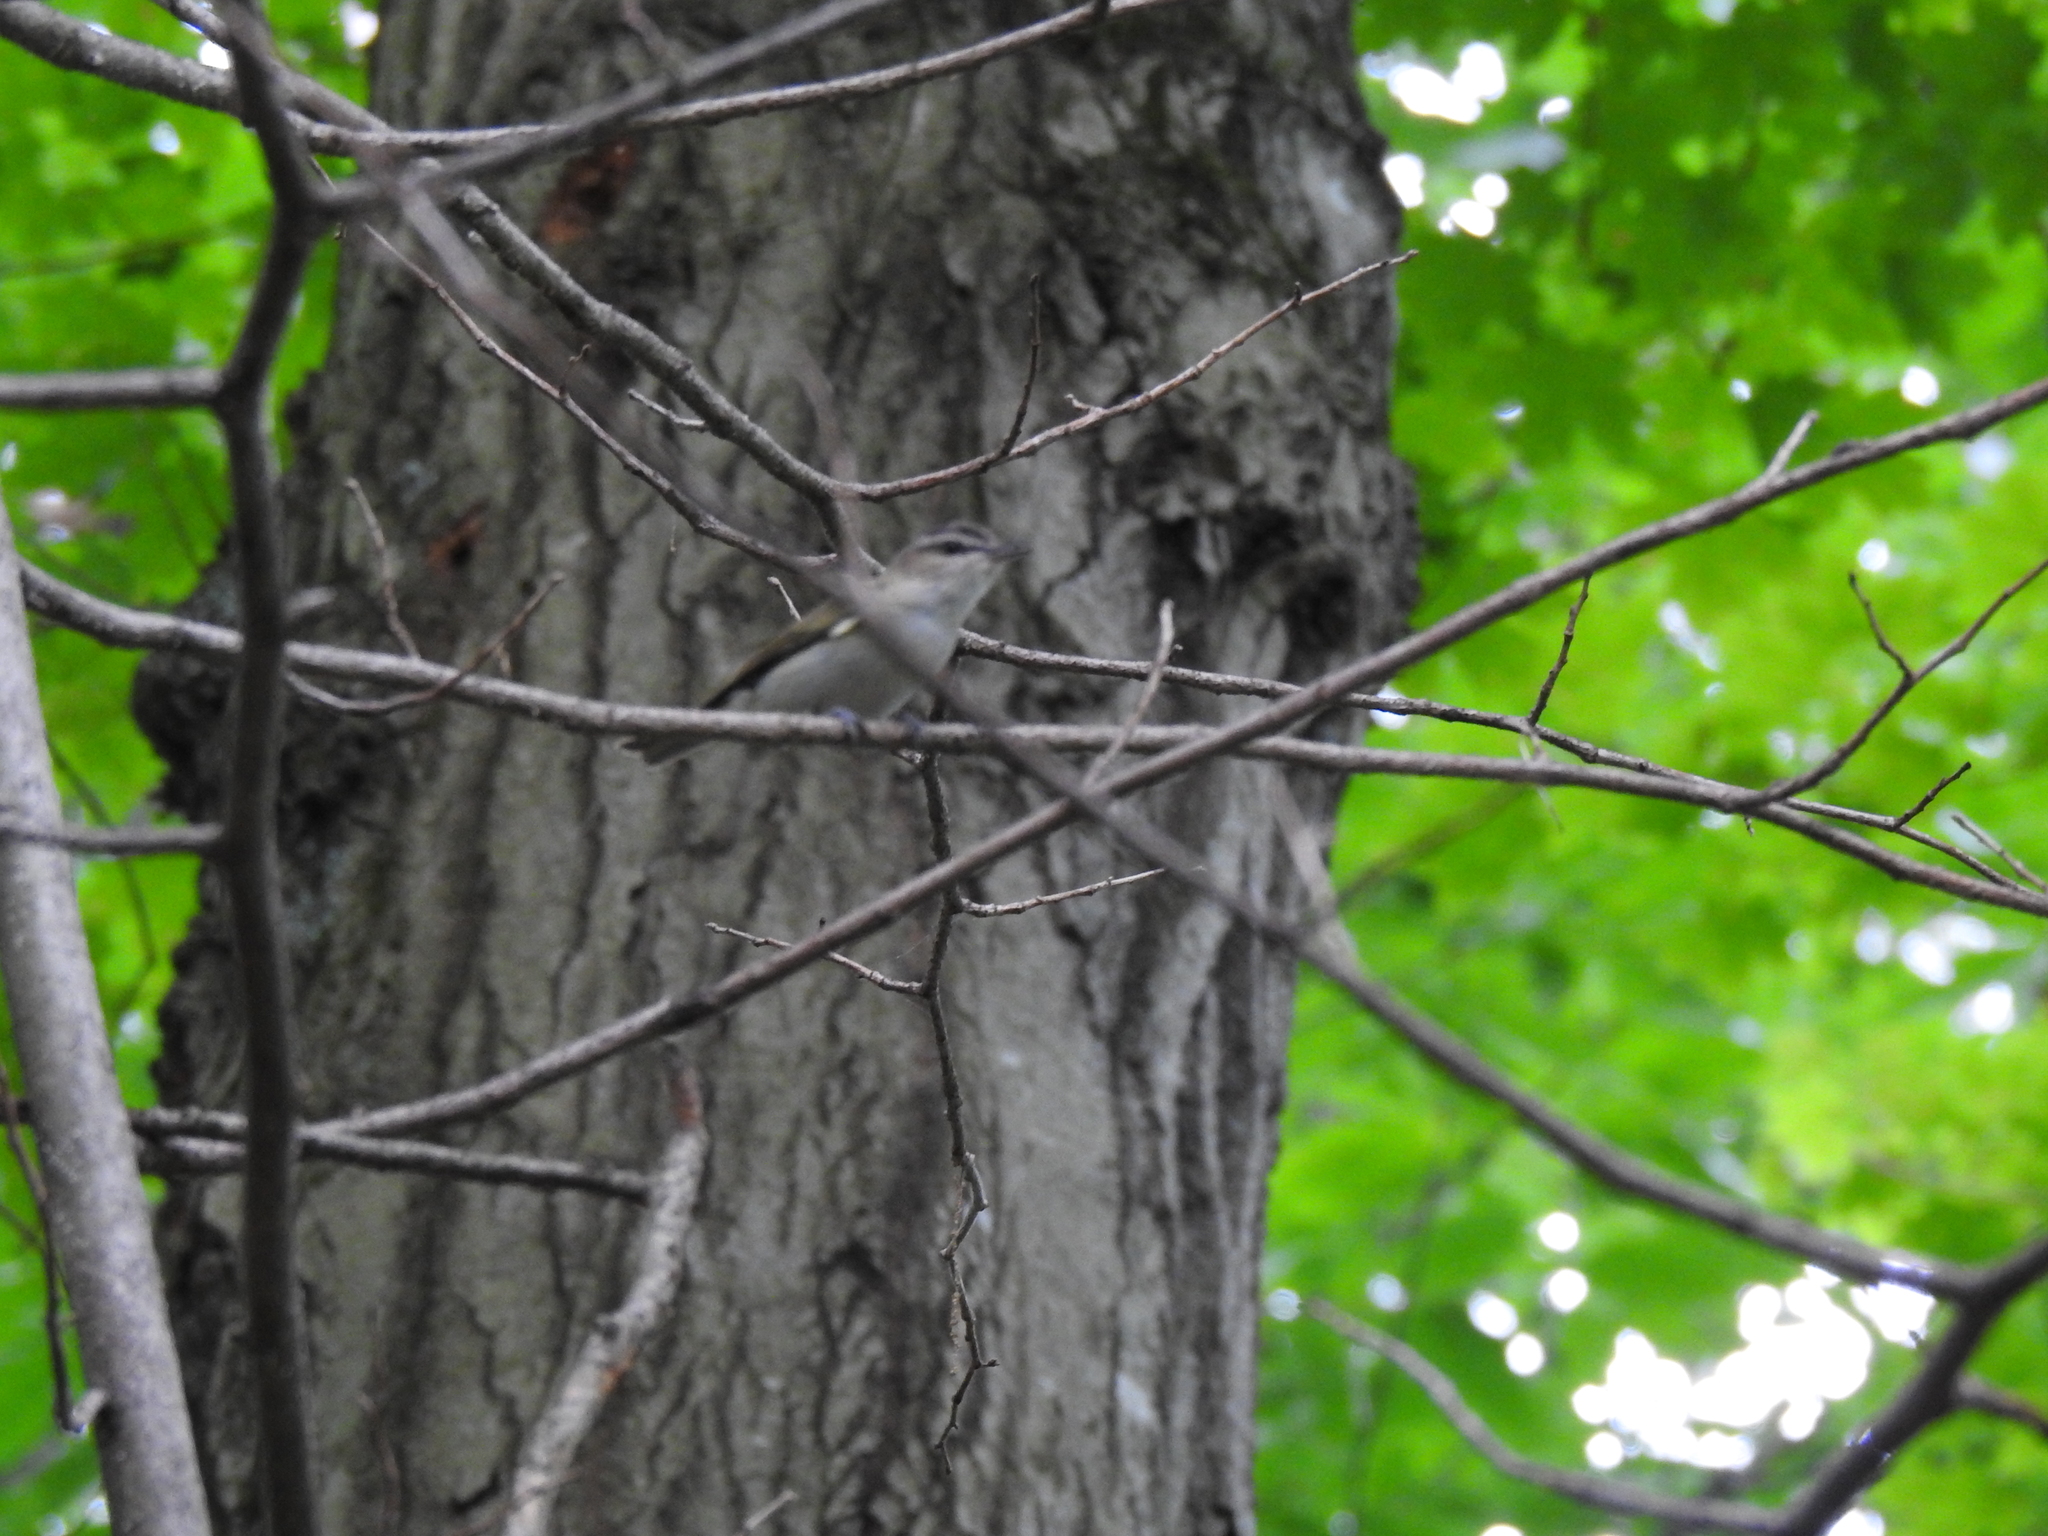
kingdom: Animalia
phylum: Chordata
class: Aves
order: Passeriformes
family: Vireonidae
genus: Vireo
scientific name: Vireo olivaceus
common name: Red-eyed vireo
